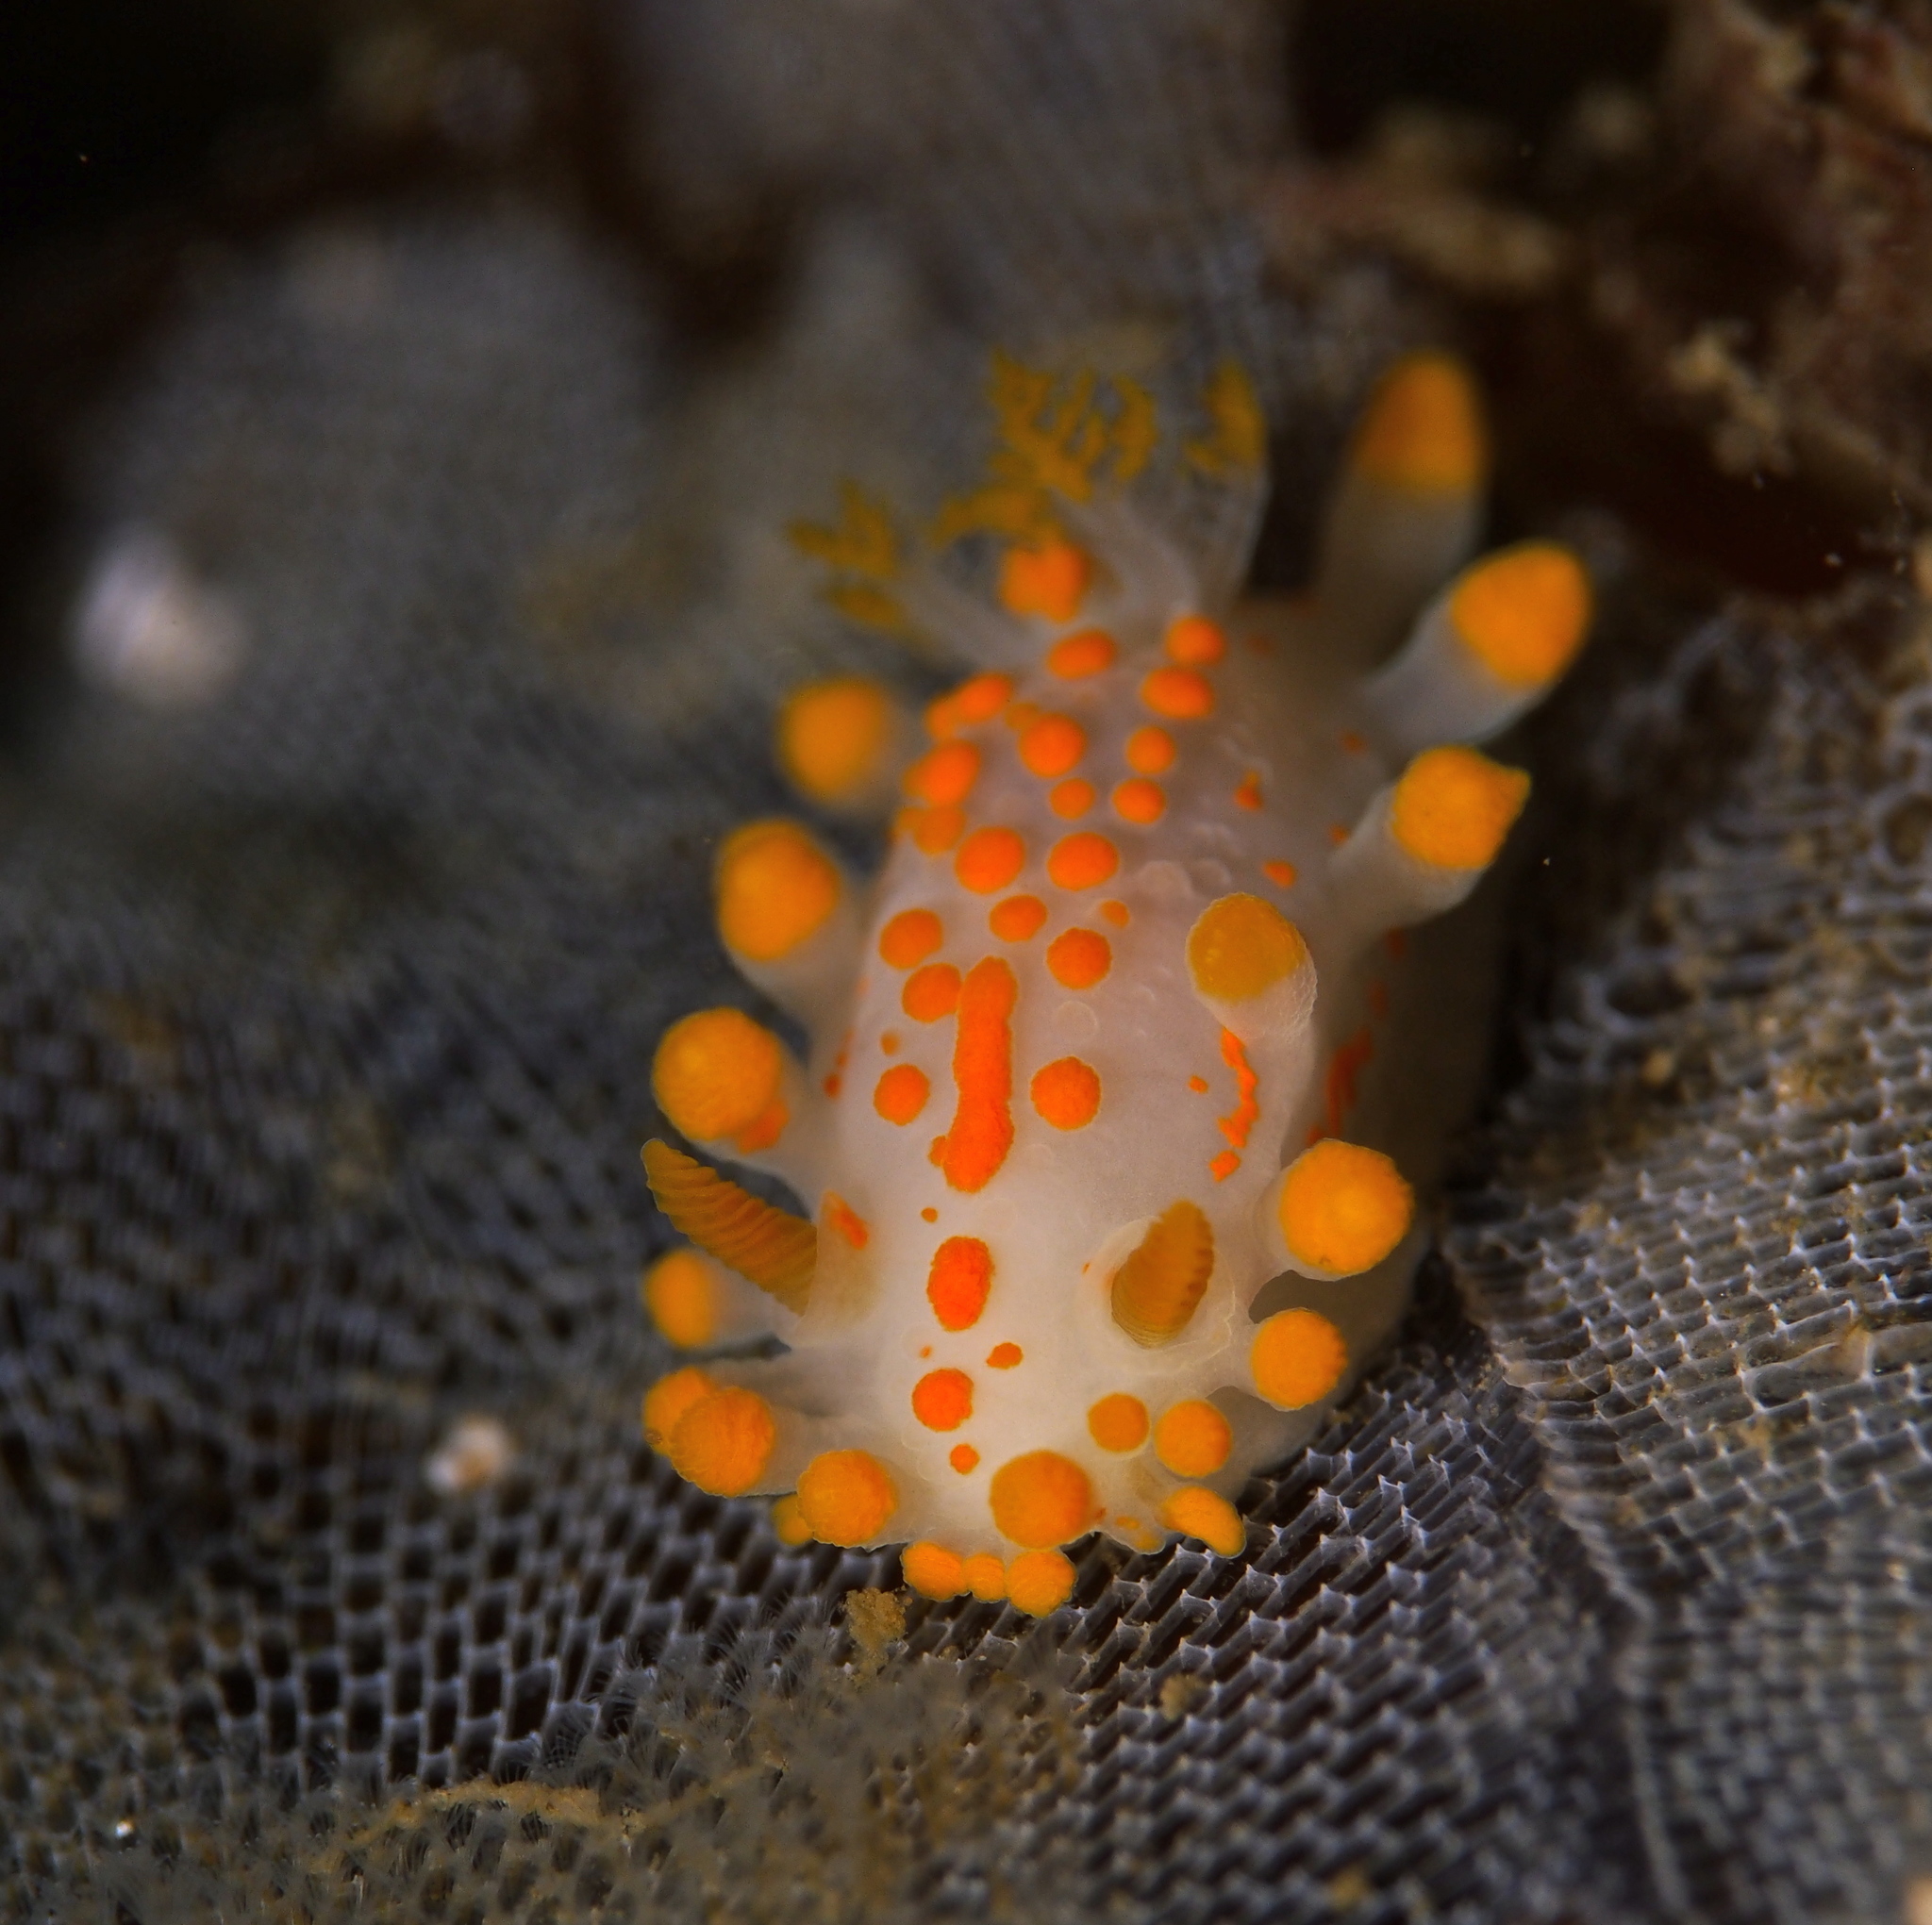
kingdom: Animalia
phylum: Mollusca
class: Gastropoda
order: Nudibranchia
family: Polyceridae
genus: Limacia
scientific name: Limacia clavigera
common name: Orange-clubbed sea slug
